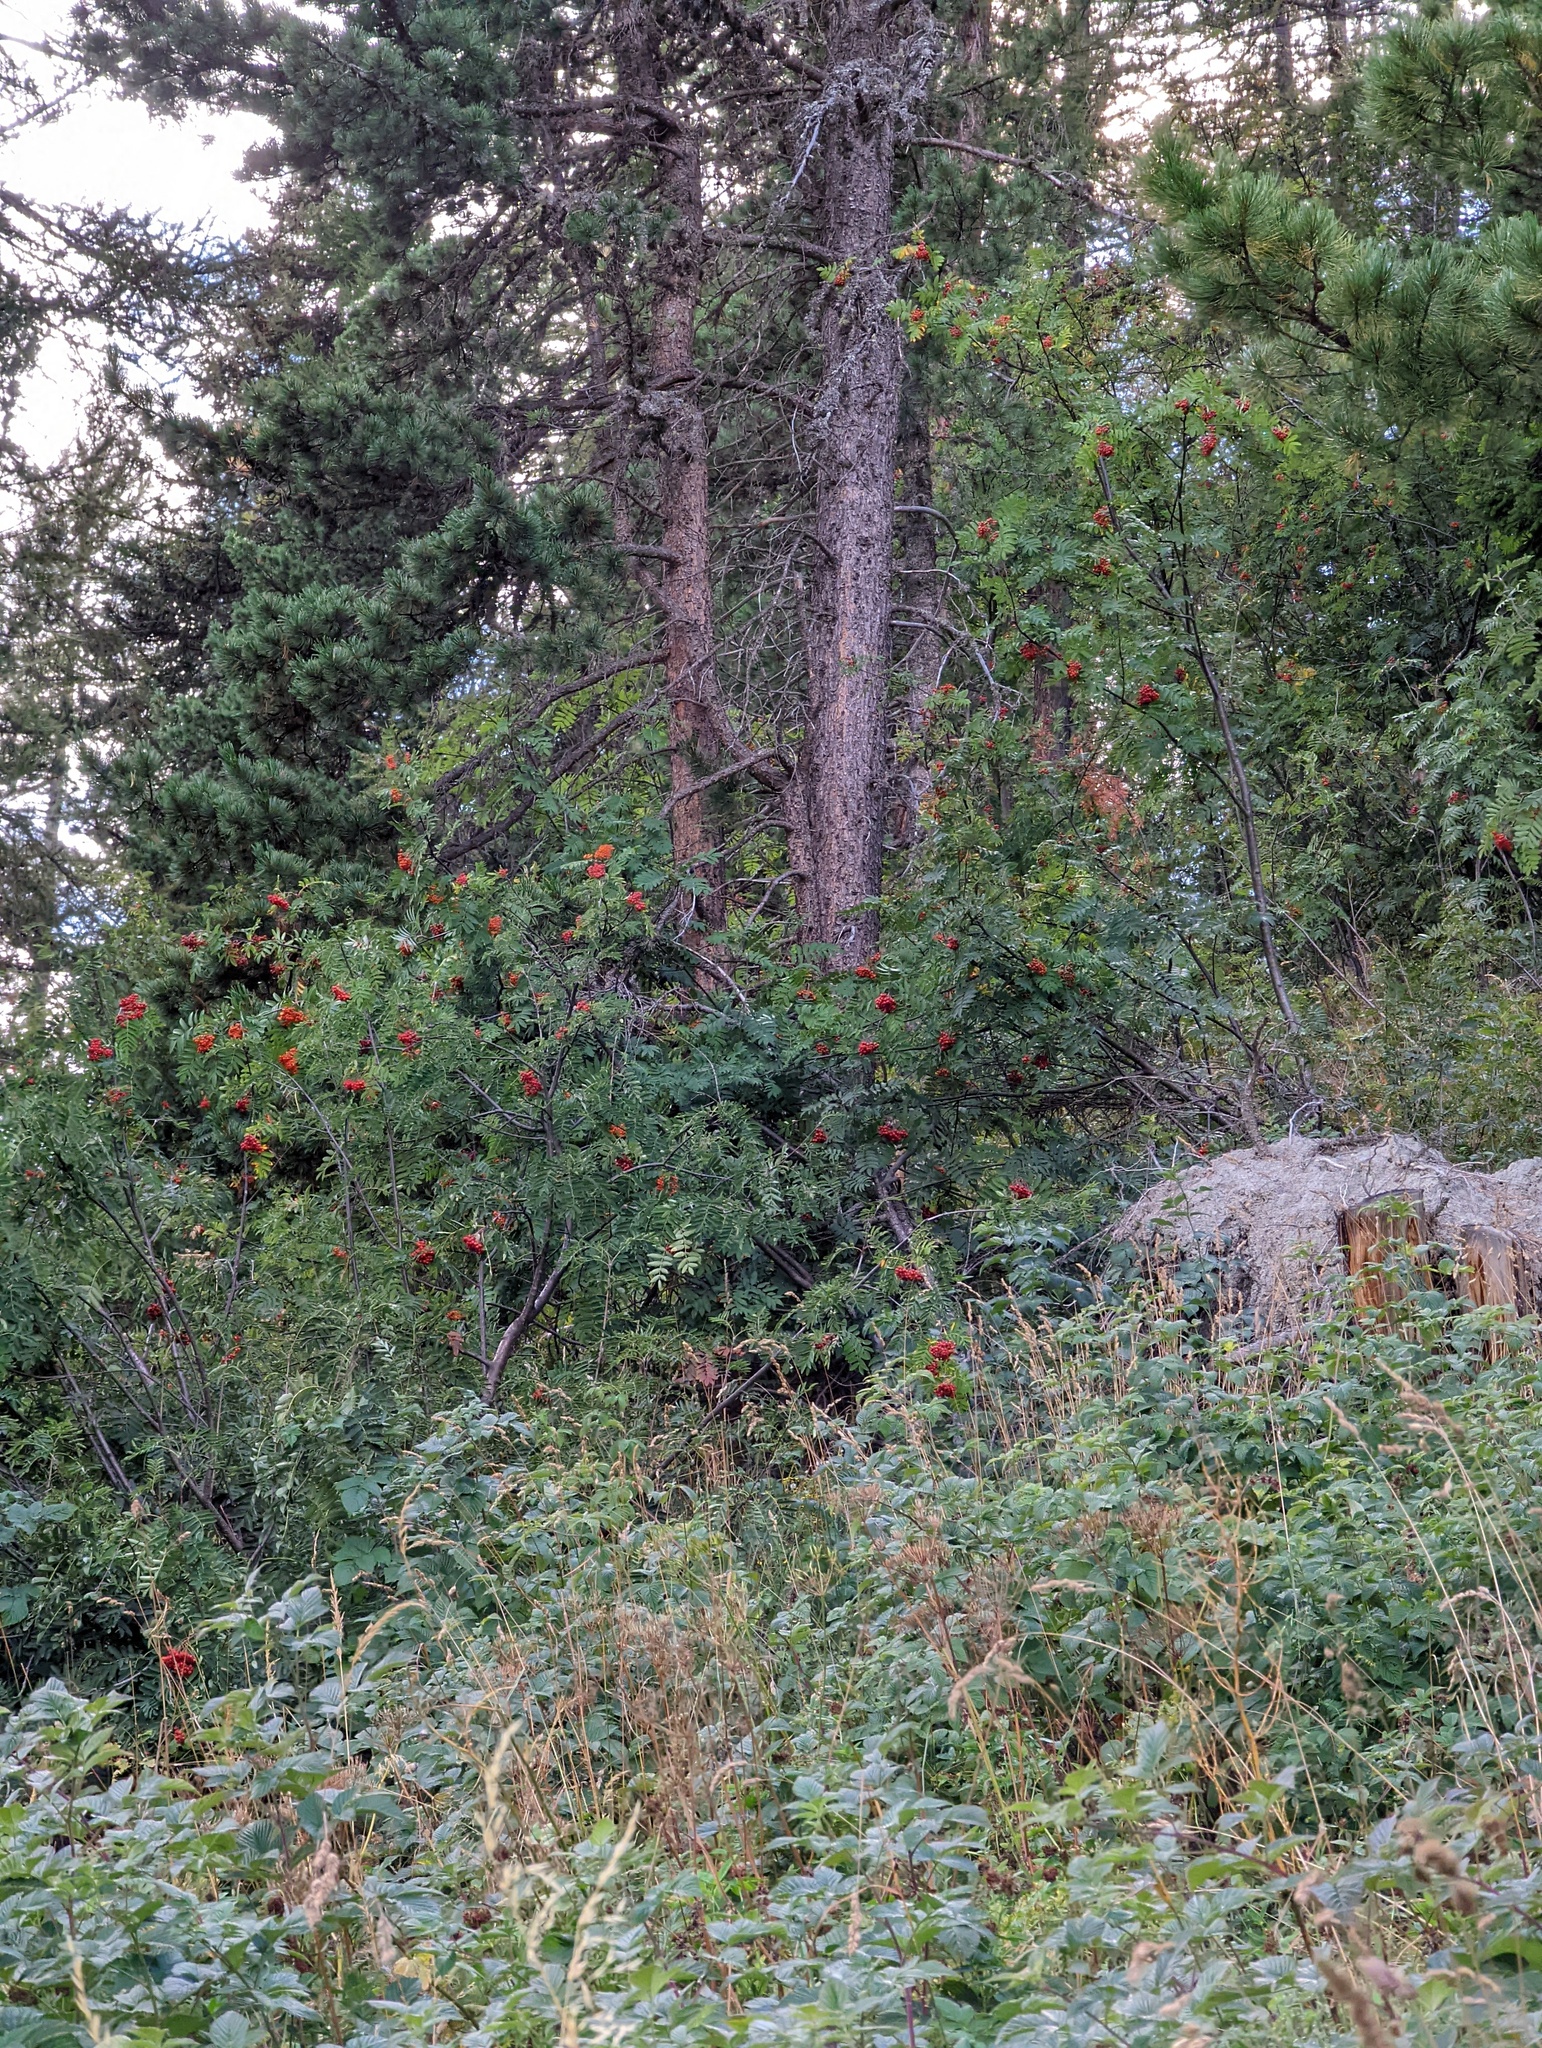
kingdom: Plantae
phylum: Tracheophyta
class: Magnoliopsida
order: Rosales
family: Rosaceae
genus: Sorbus
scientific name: Sorbus aucuparia
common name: Rowan
